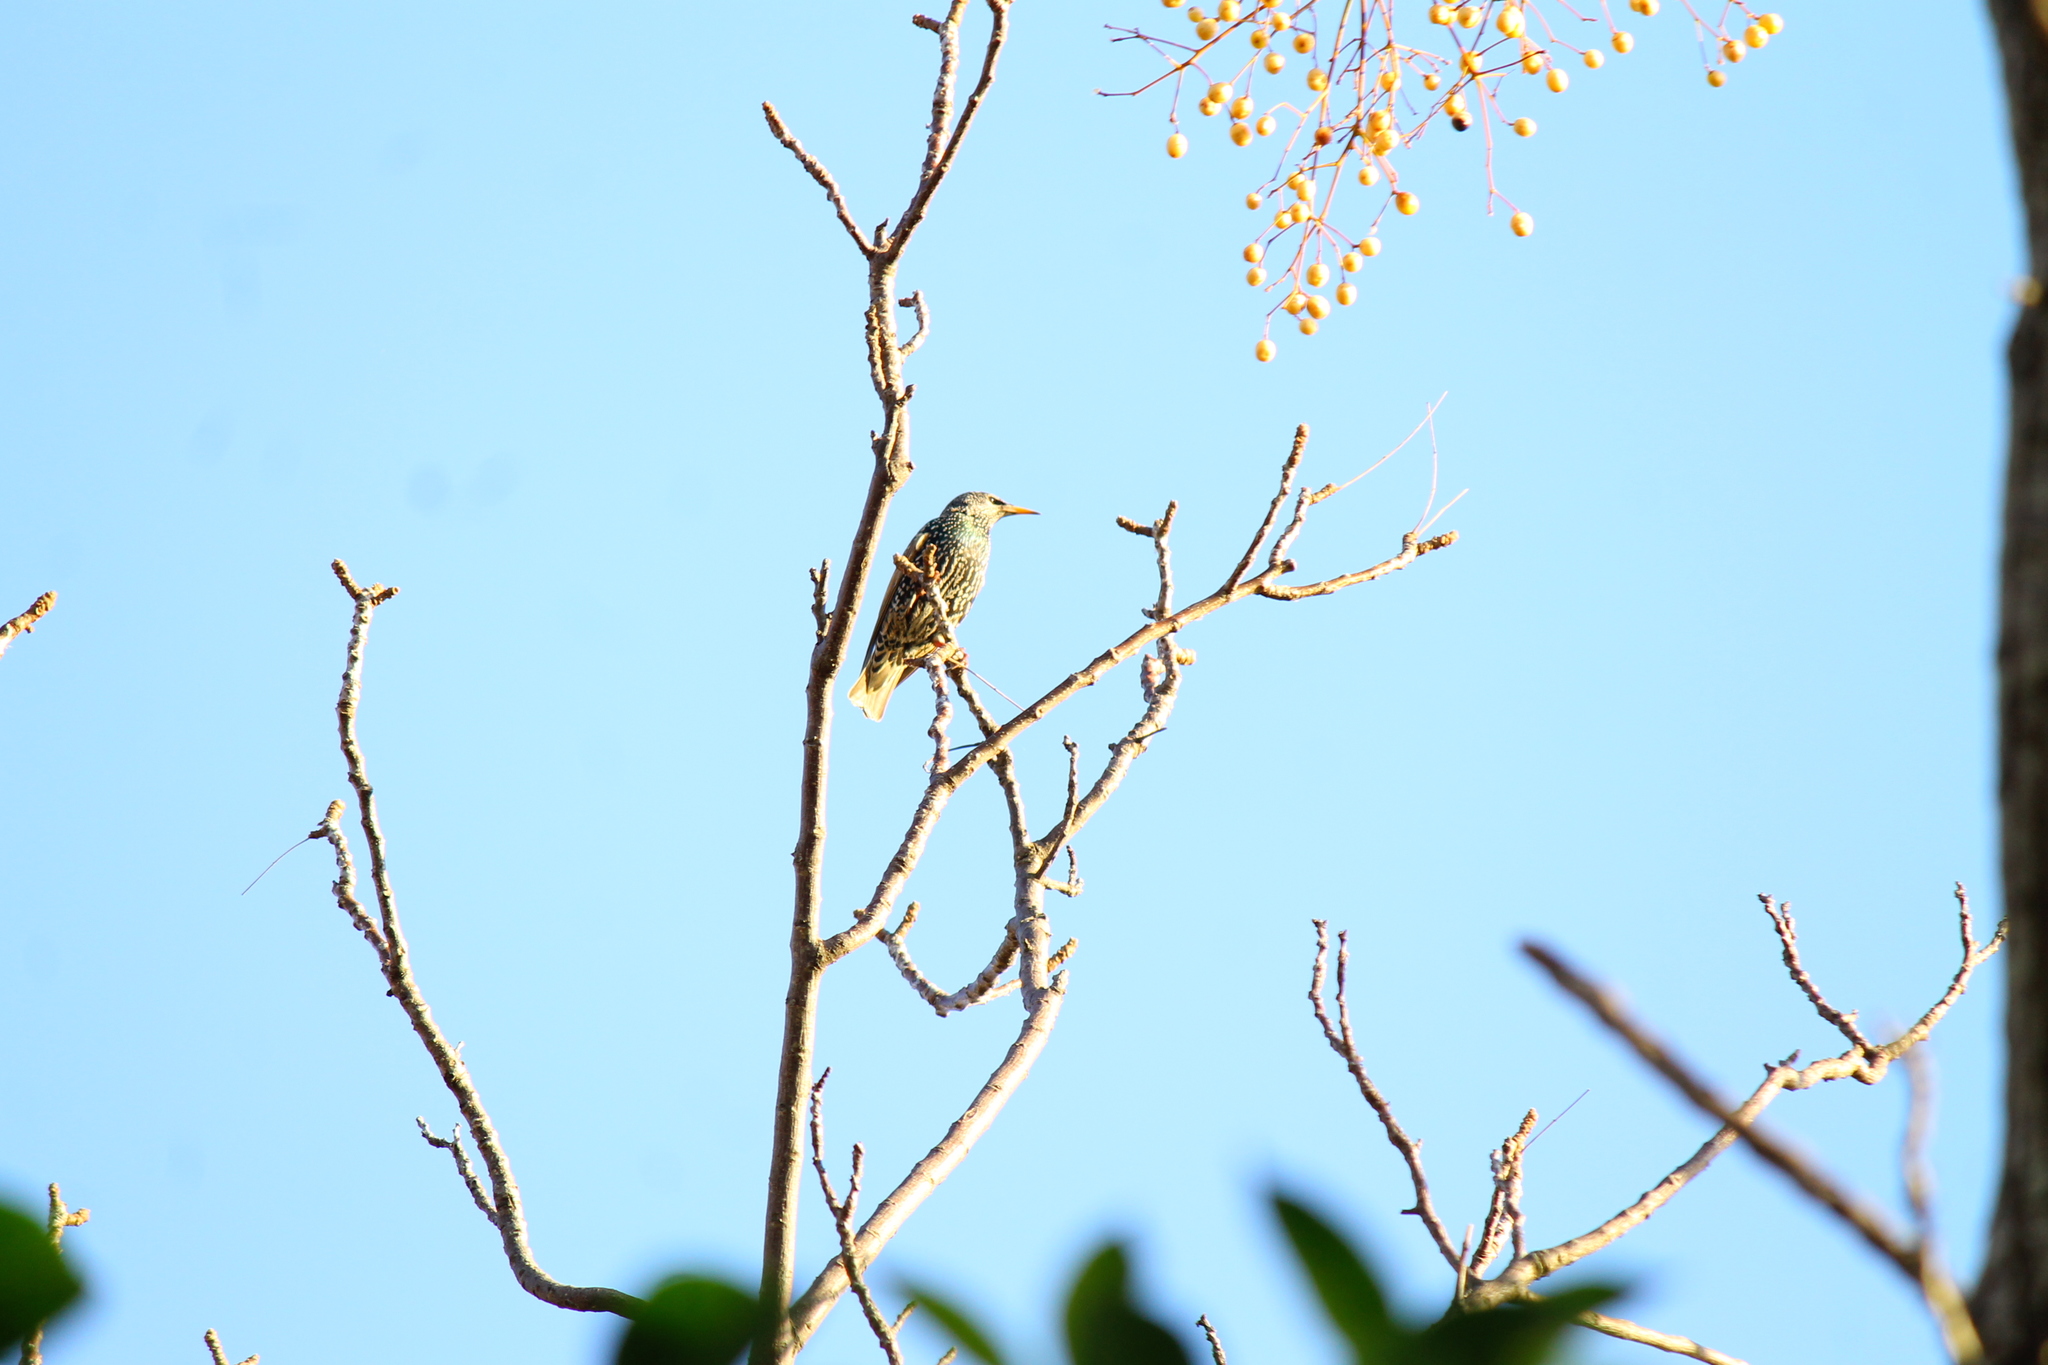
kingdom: Animalia
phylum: Chordata
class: Aves
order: Passeriformes
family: Sturnidae
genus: Sturnus
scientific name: Sturnus vulgaris
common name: Common starling
